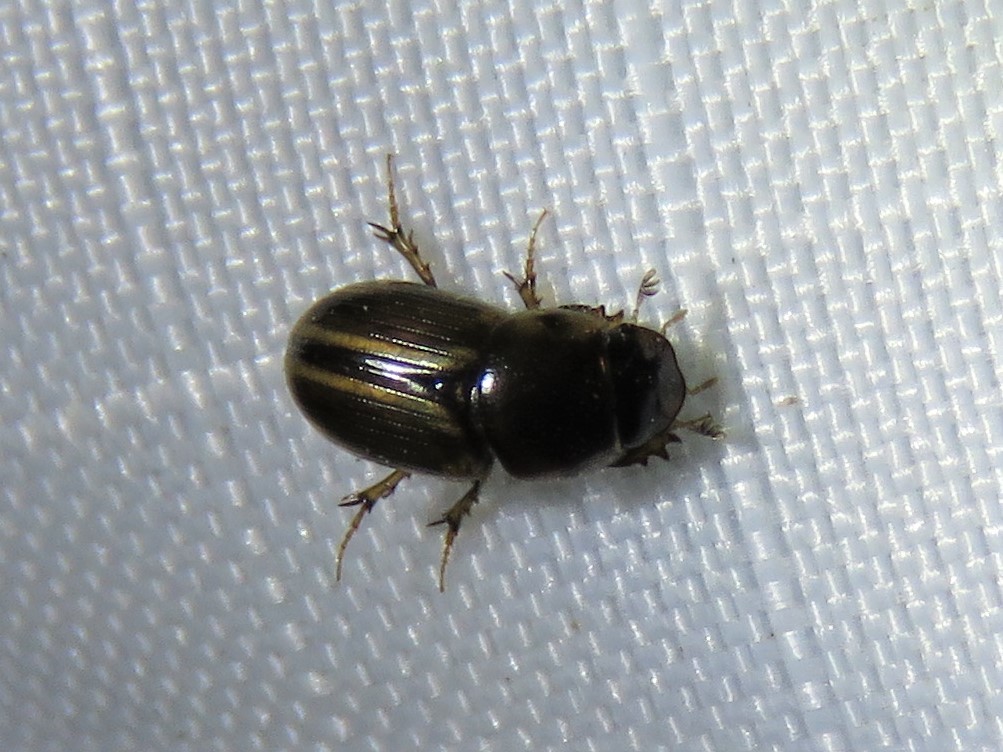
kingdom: Animalia
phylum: Arthropoda
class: Insecta
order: Coleoptera
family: Scarabaeidae
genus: Labarrus
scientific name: Labarrus lividus
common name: Scarab beetle
